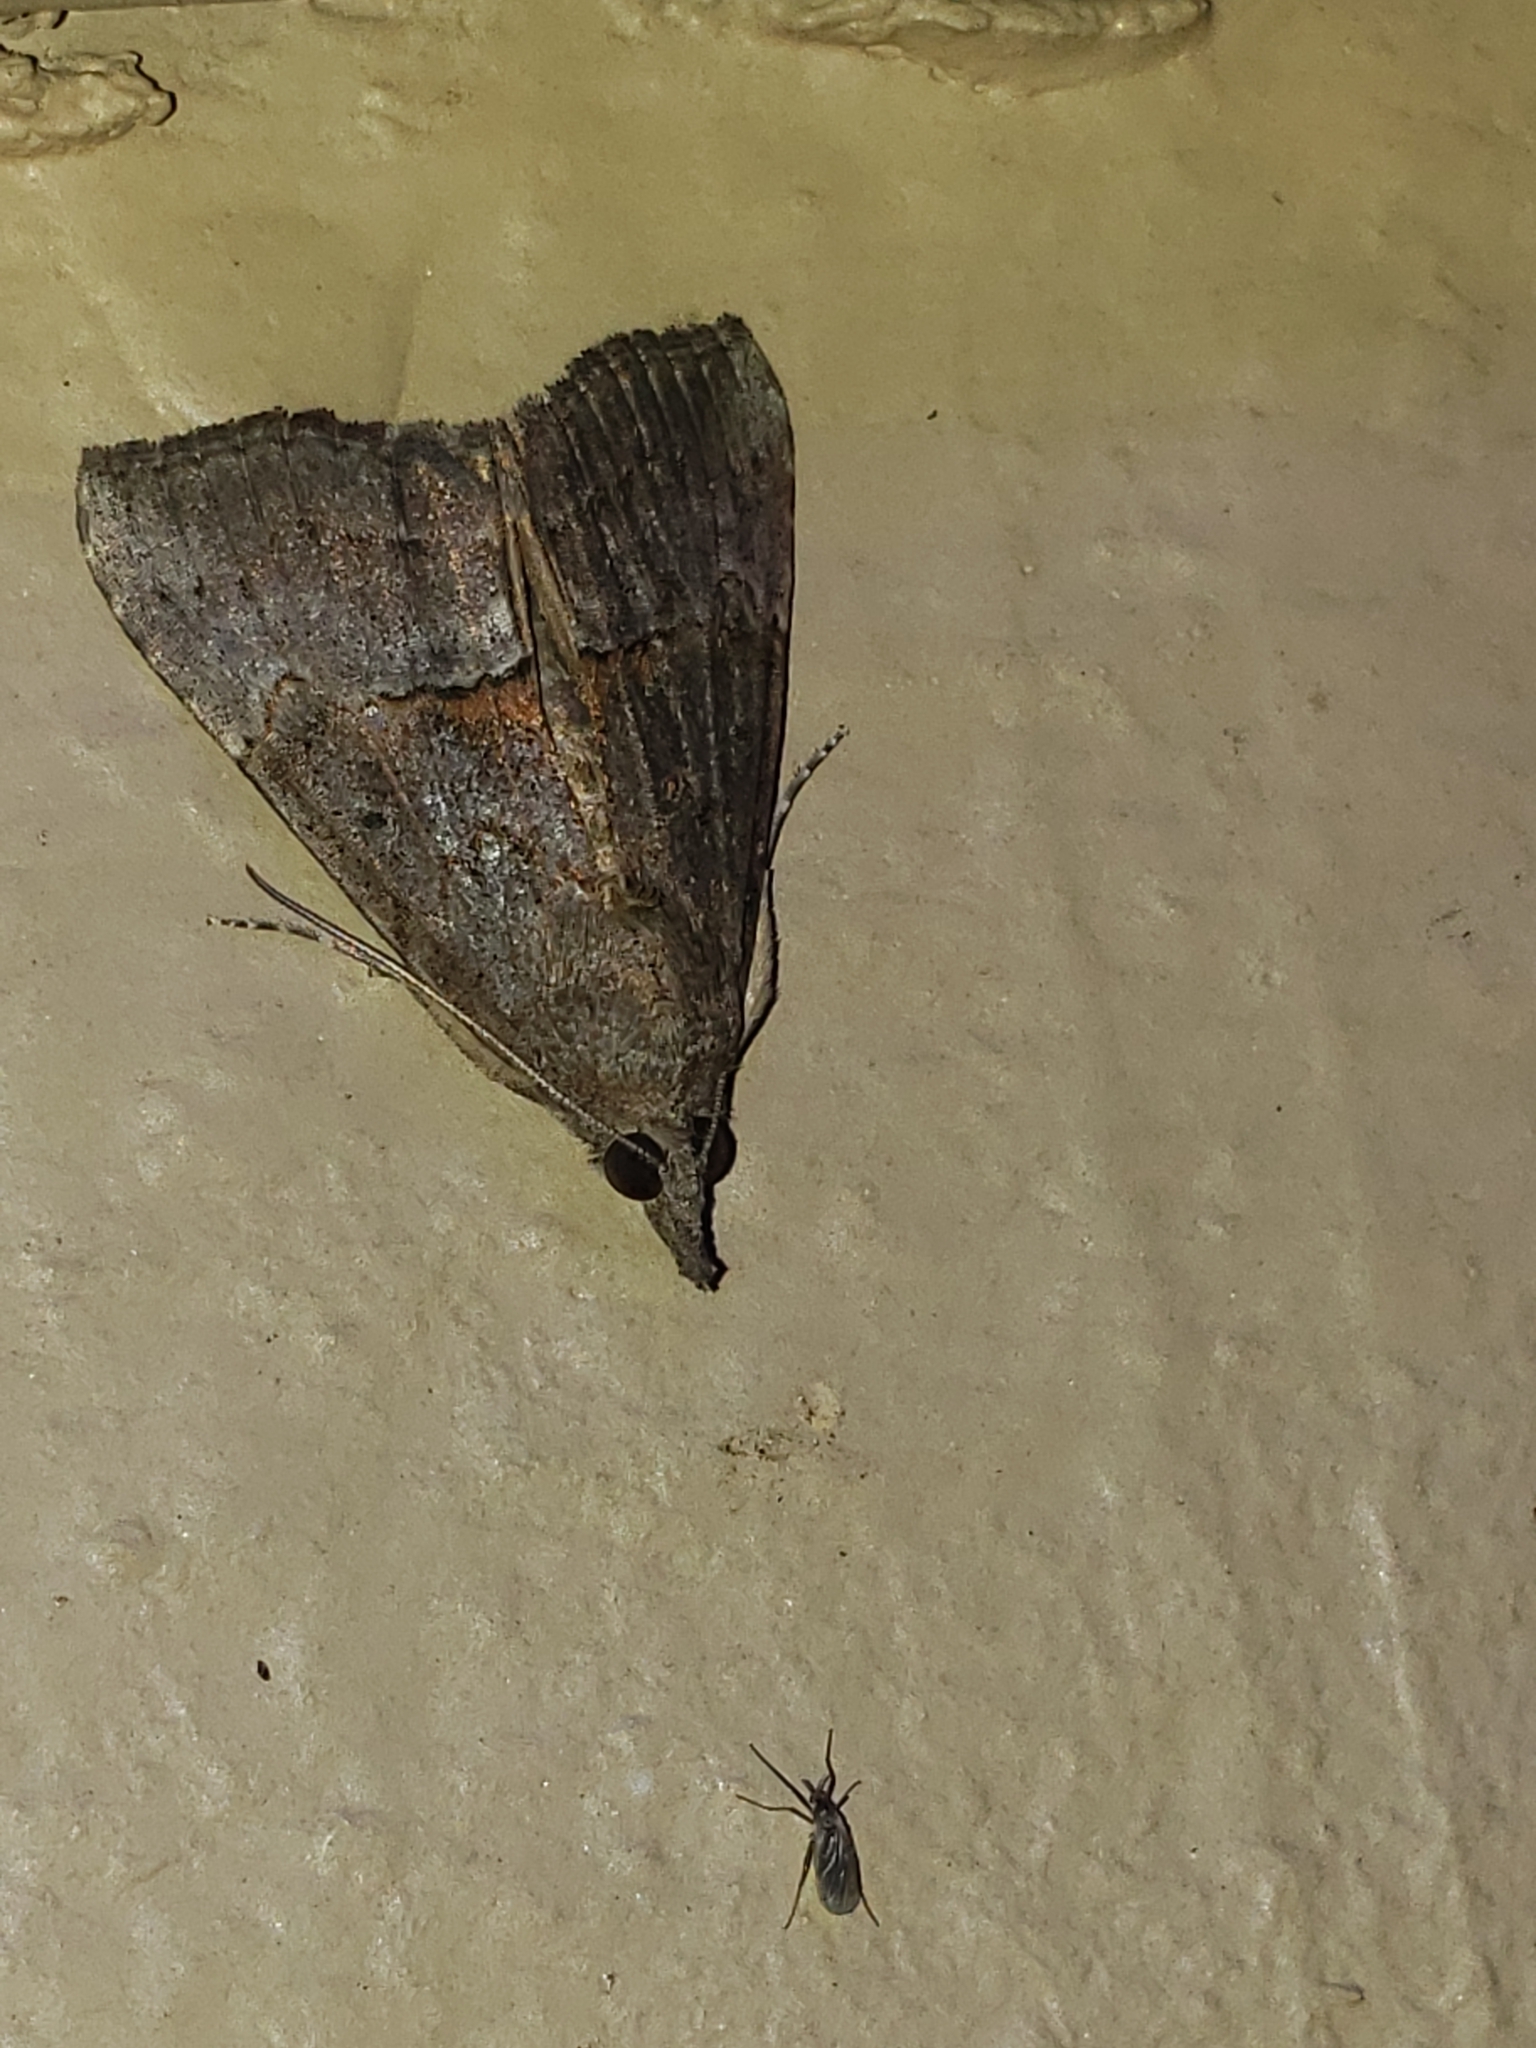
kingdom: Animalia
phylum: Arthropoda
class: Insecta
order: Lepidoptera
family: Erebidae
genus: Hypena
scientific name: Hypena scabra
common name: Green cloverworm
